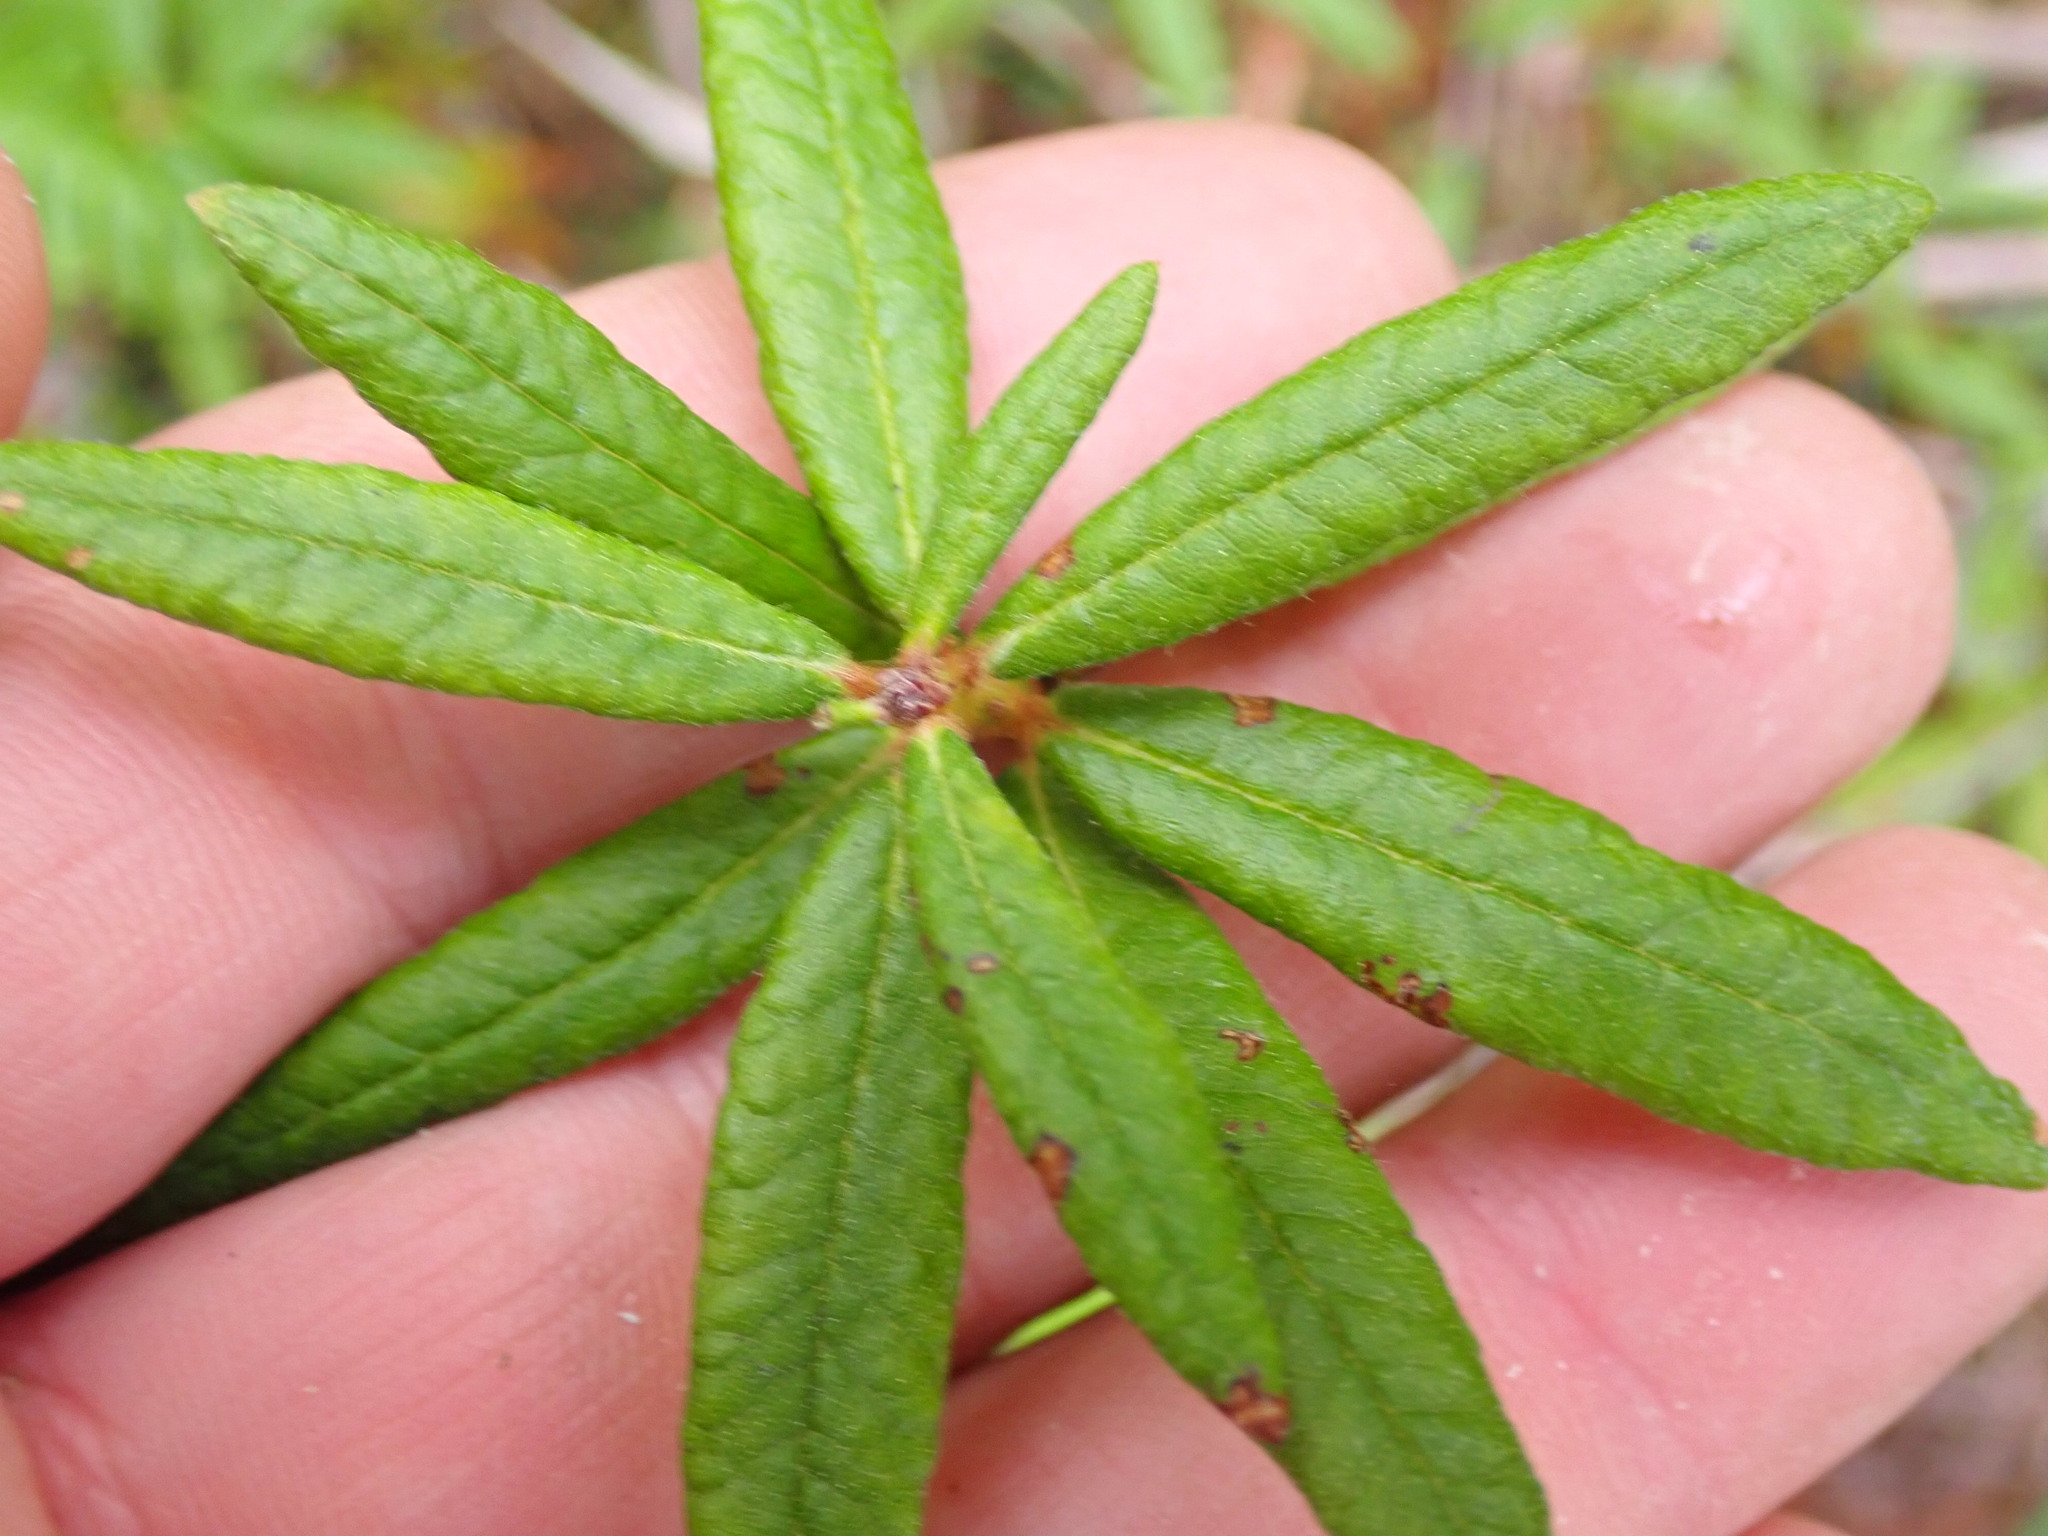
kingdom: Plantae
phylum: Tracheophyta
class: Magnoliopsida
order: Ericales
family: Ericaceae
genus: Rhododendron
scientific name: Rhododendron groenlandicum
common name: Bog labrador tea
